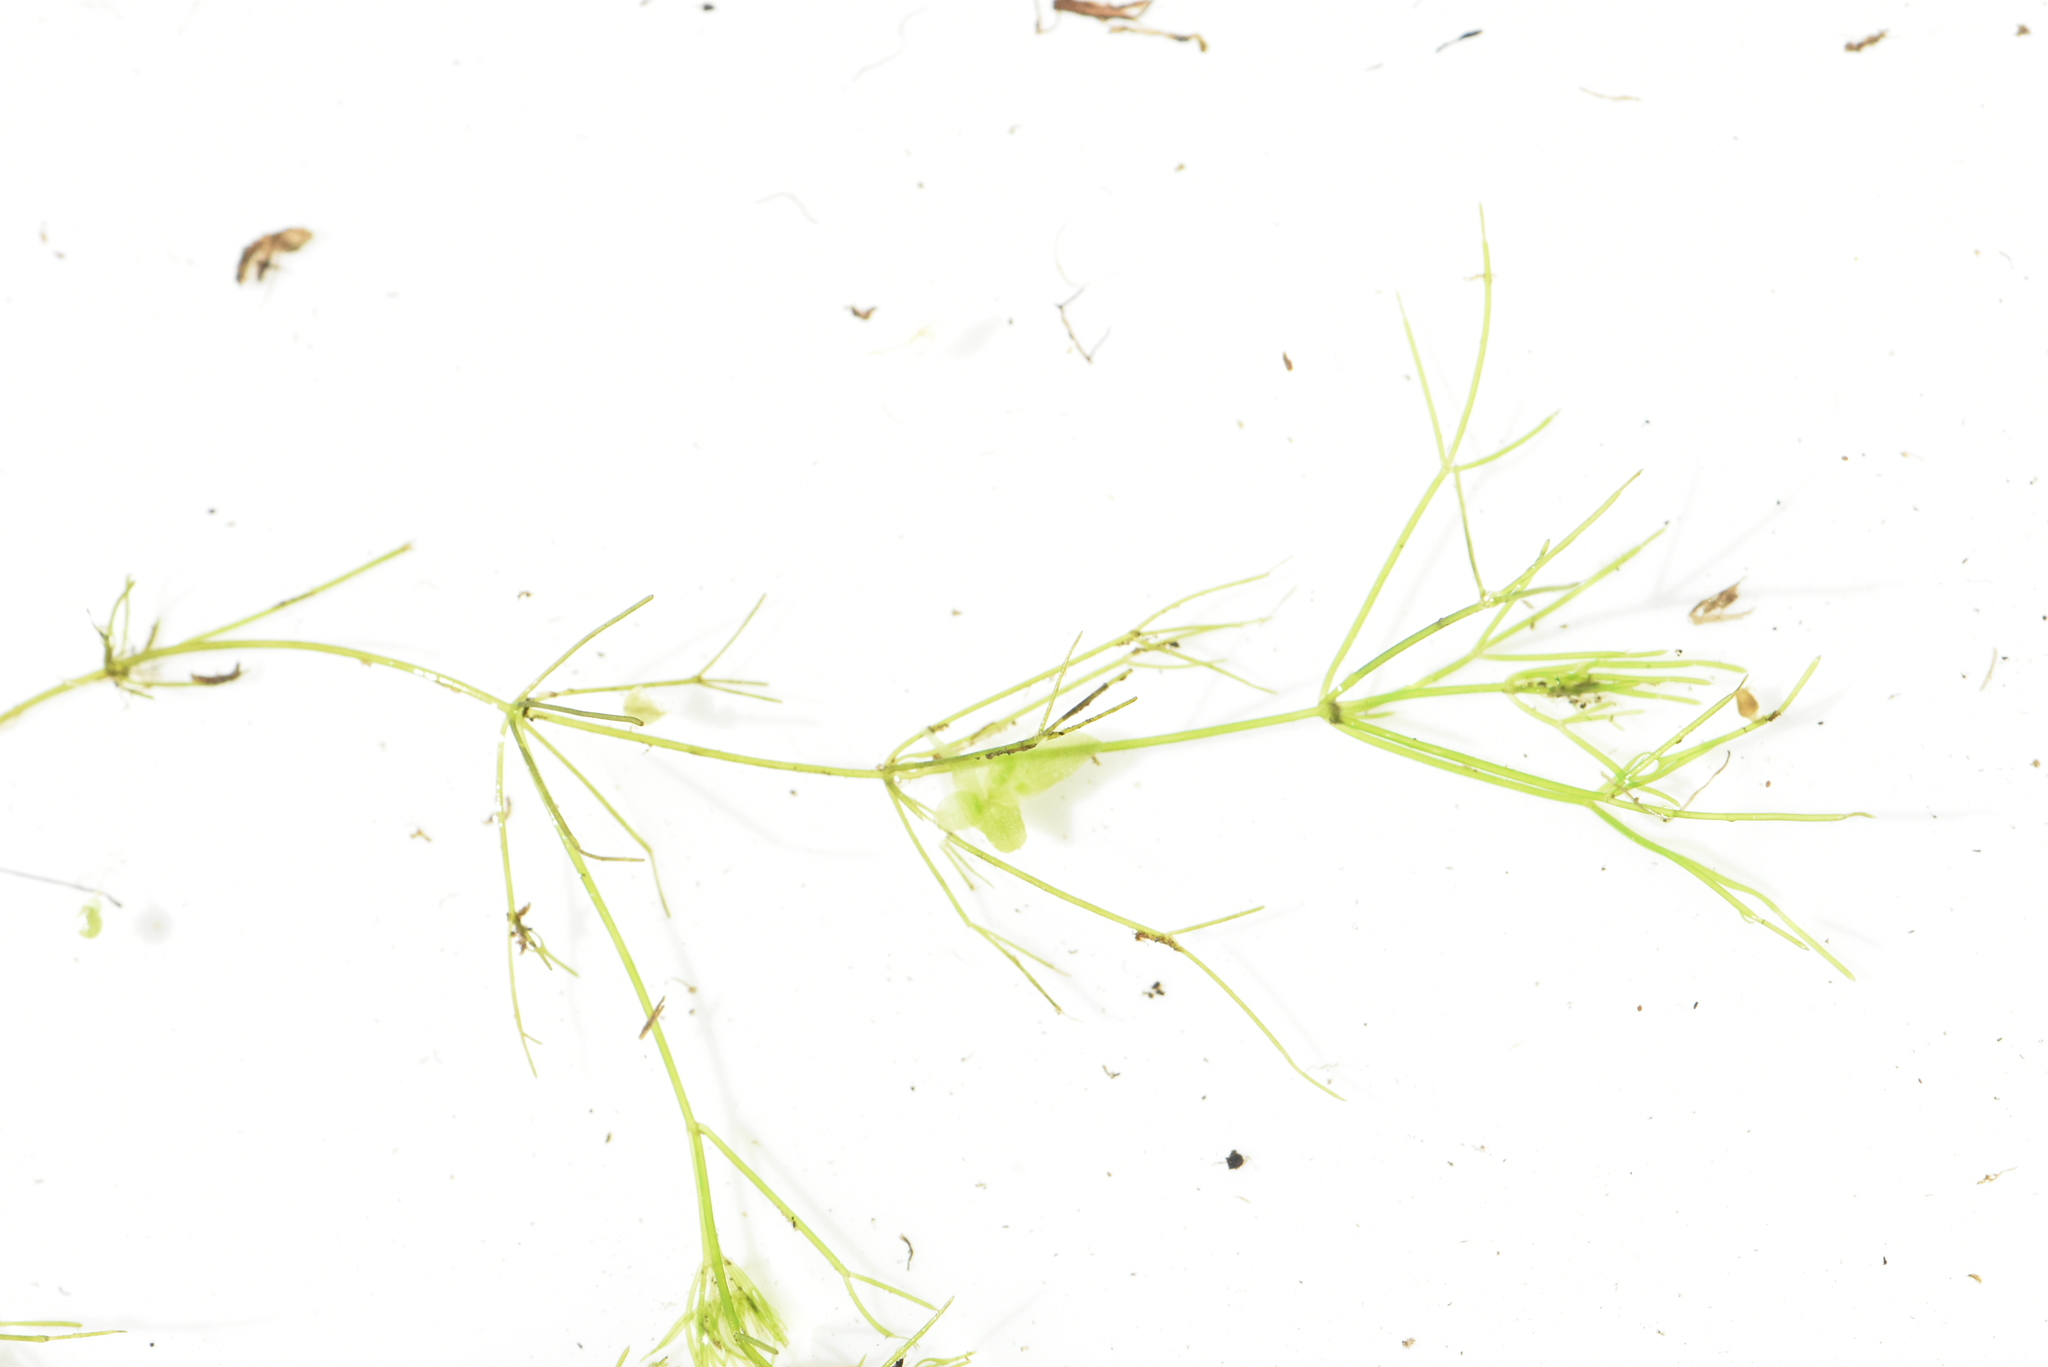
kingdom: Plantae
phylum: Charophyta
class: Charophyceae
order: Charales
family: Characeae
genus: Nitella
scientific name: Nitella mucronata
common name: Compact stonewort
